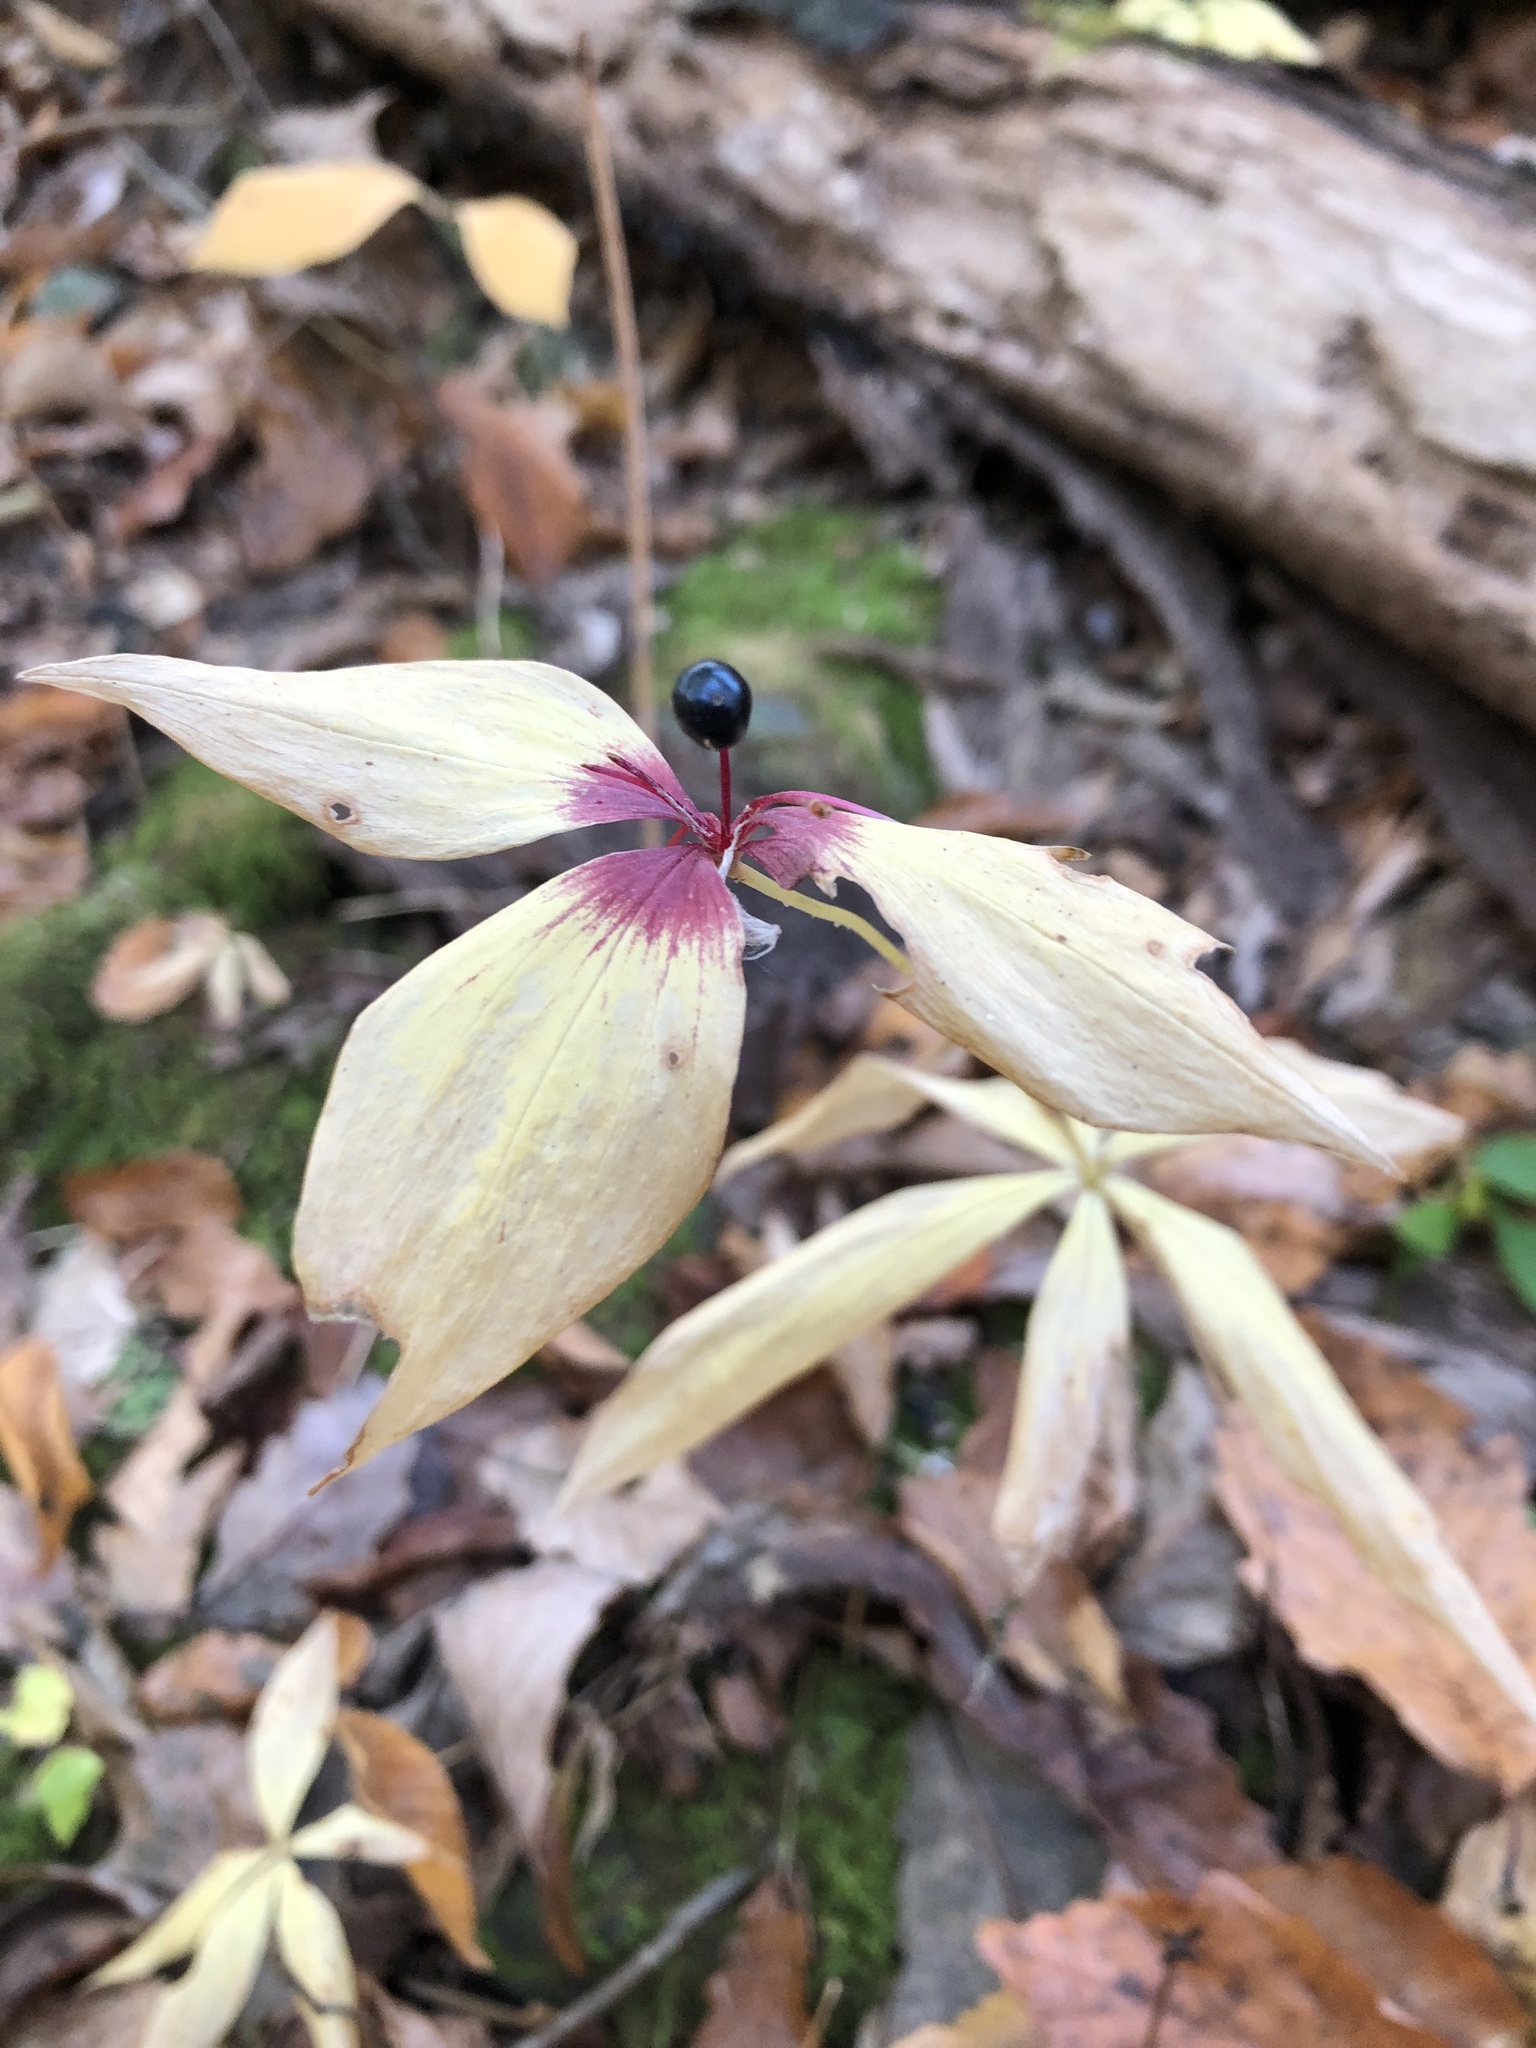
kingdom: Plantae
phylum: Tracheophyta
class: Liliopsida
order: Liliales
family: Liliaceae
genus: Medeola
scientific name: Medeola virginiana
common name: Indian cucumber-root
